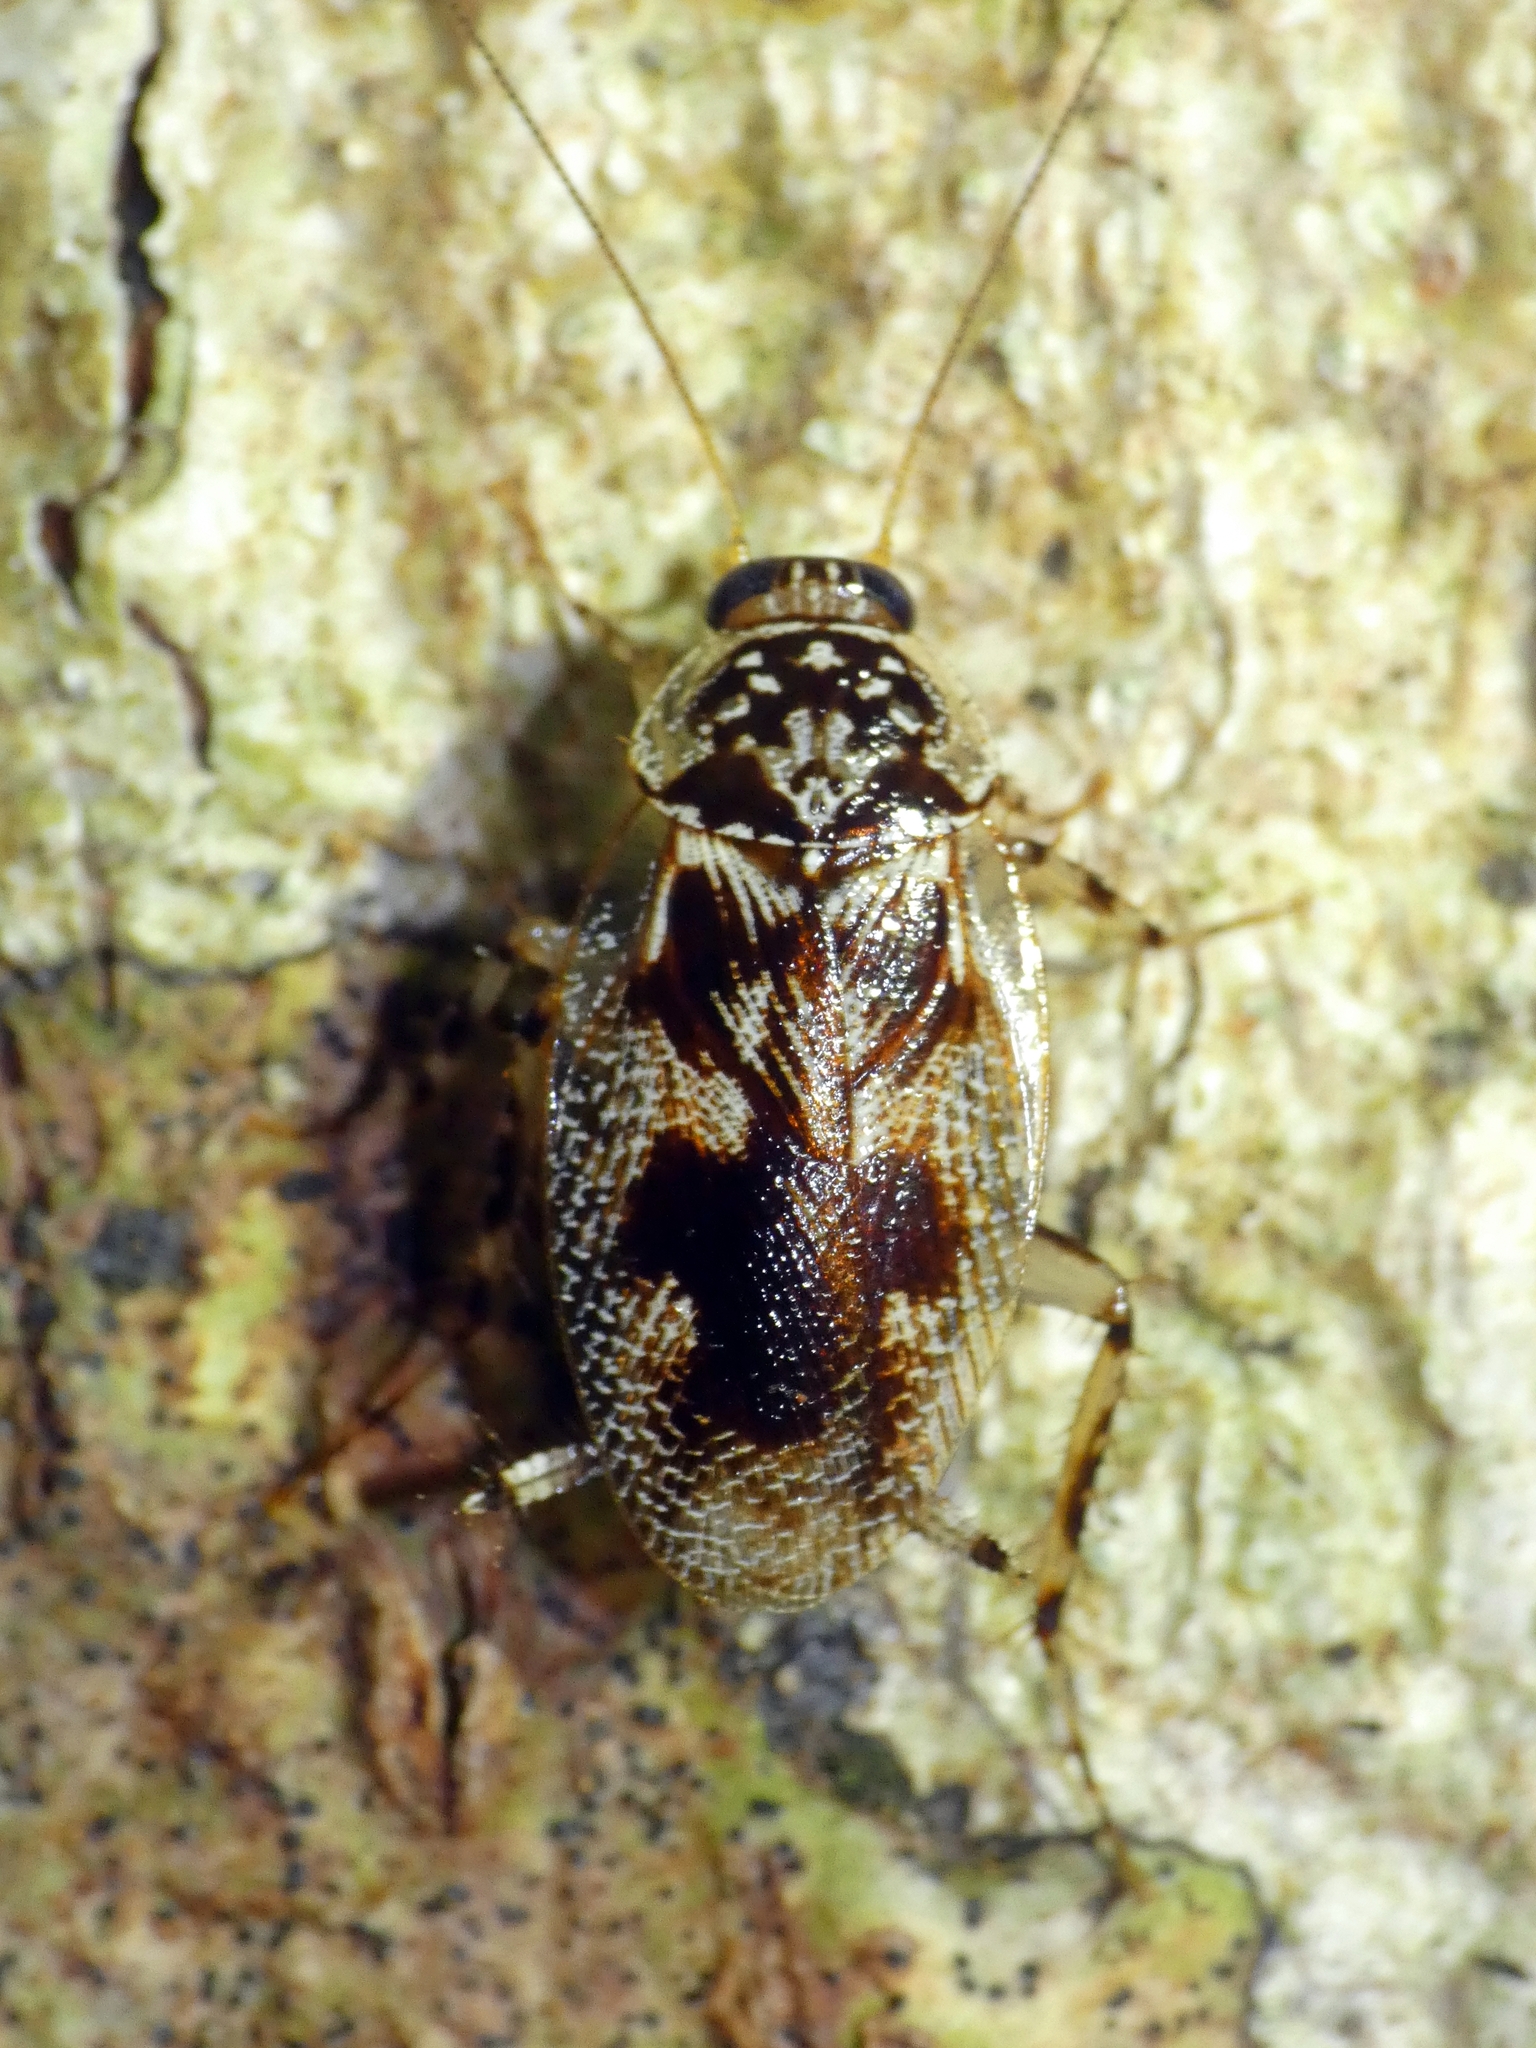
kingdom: Animalia
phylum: Arthropoda
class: Insecta
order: Blattodea
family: Ectobiidae
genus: Allacta
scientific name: Allacta australiensis
